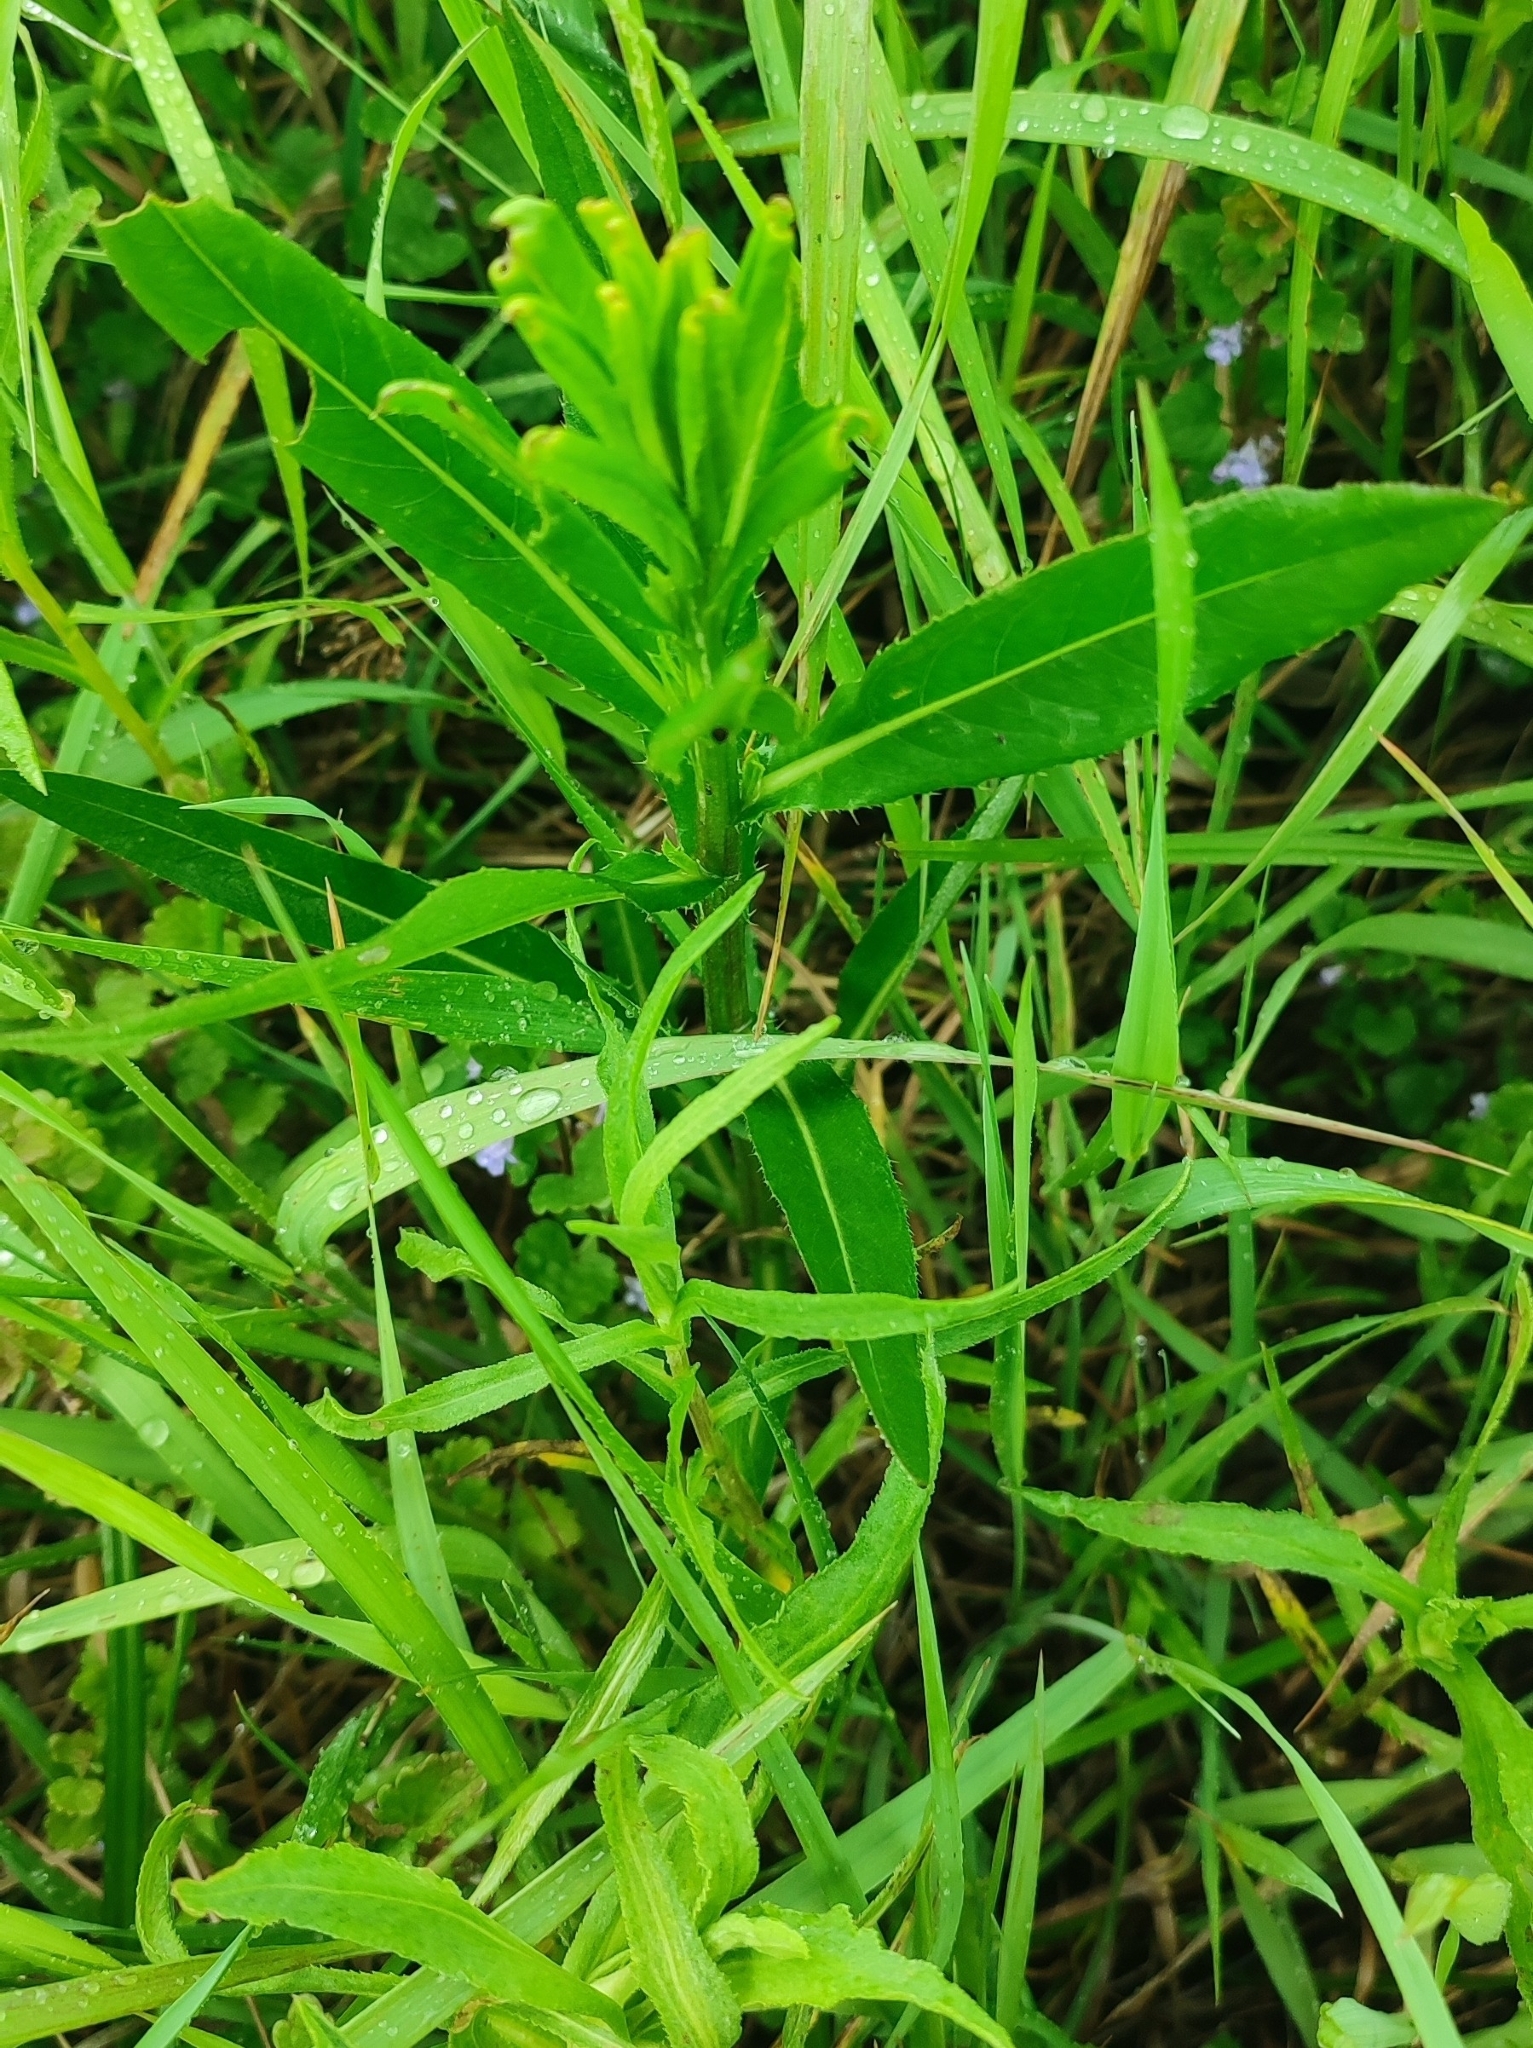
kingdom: Plantae
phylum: Tracheophyta
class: Magnoliopsida
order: Asterales
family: Asteraceae
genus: Cirsium
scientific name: Cirsium arvense
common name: Creeping thistle
